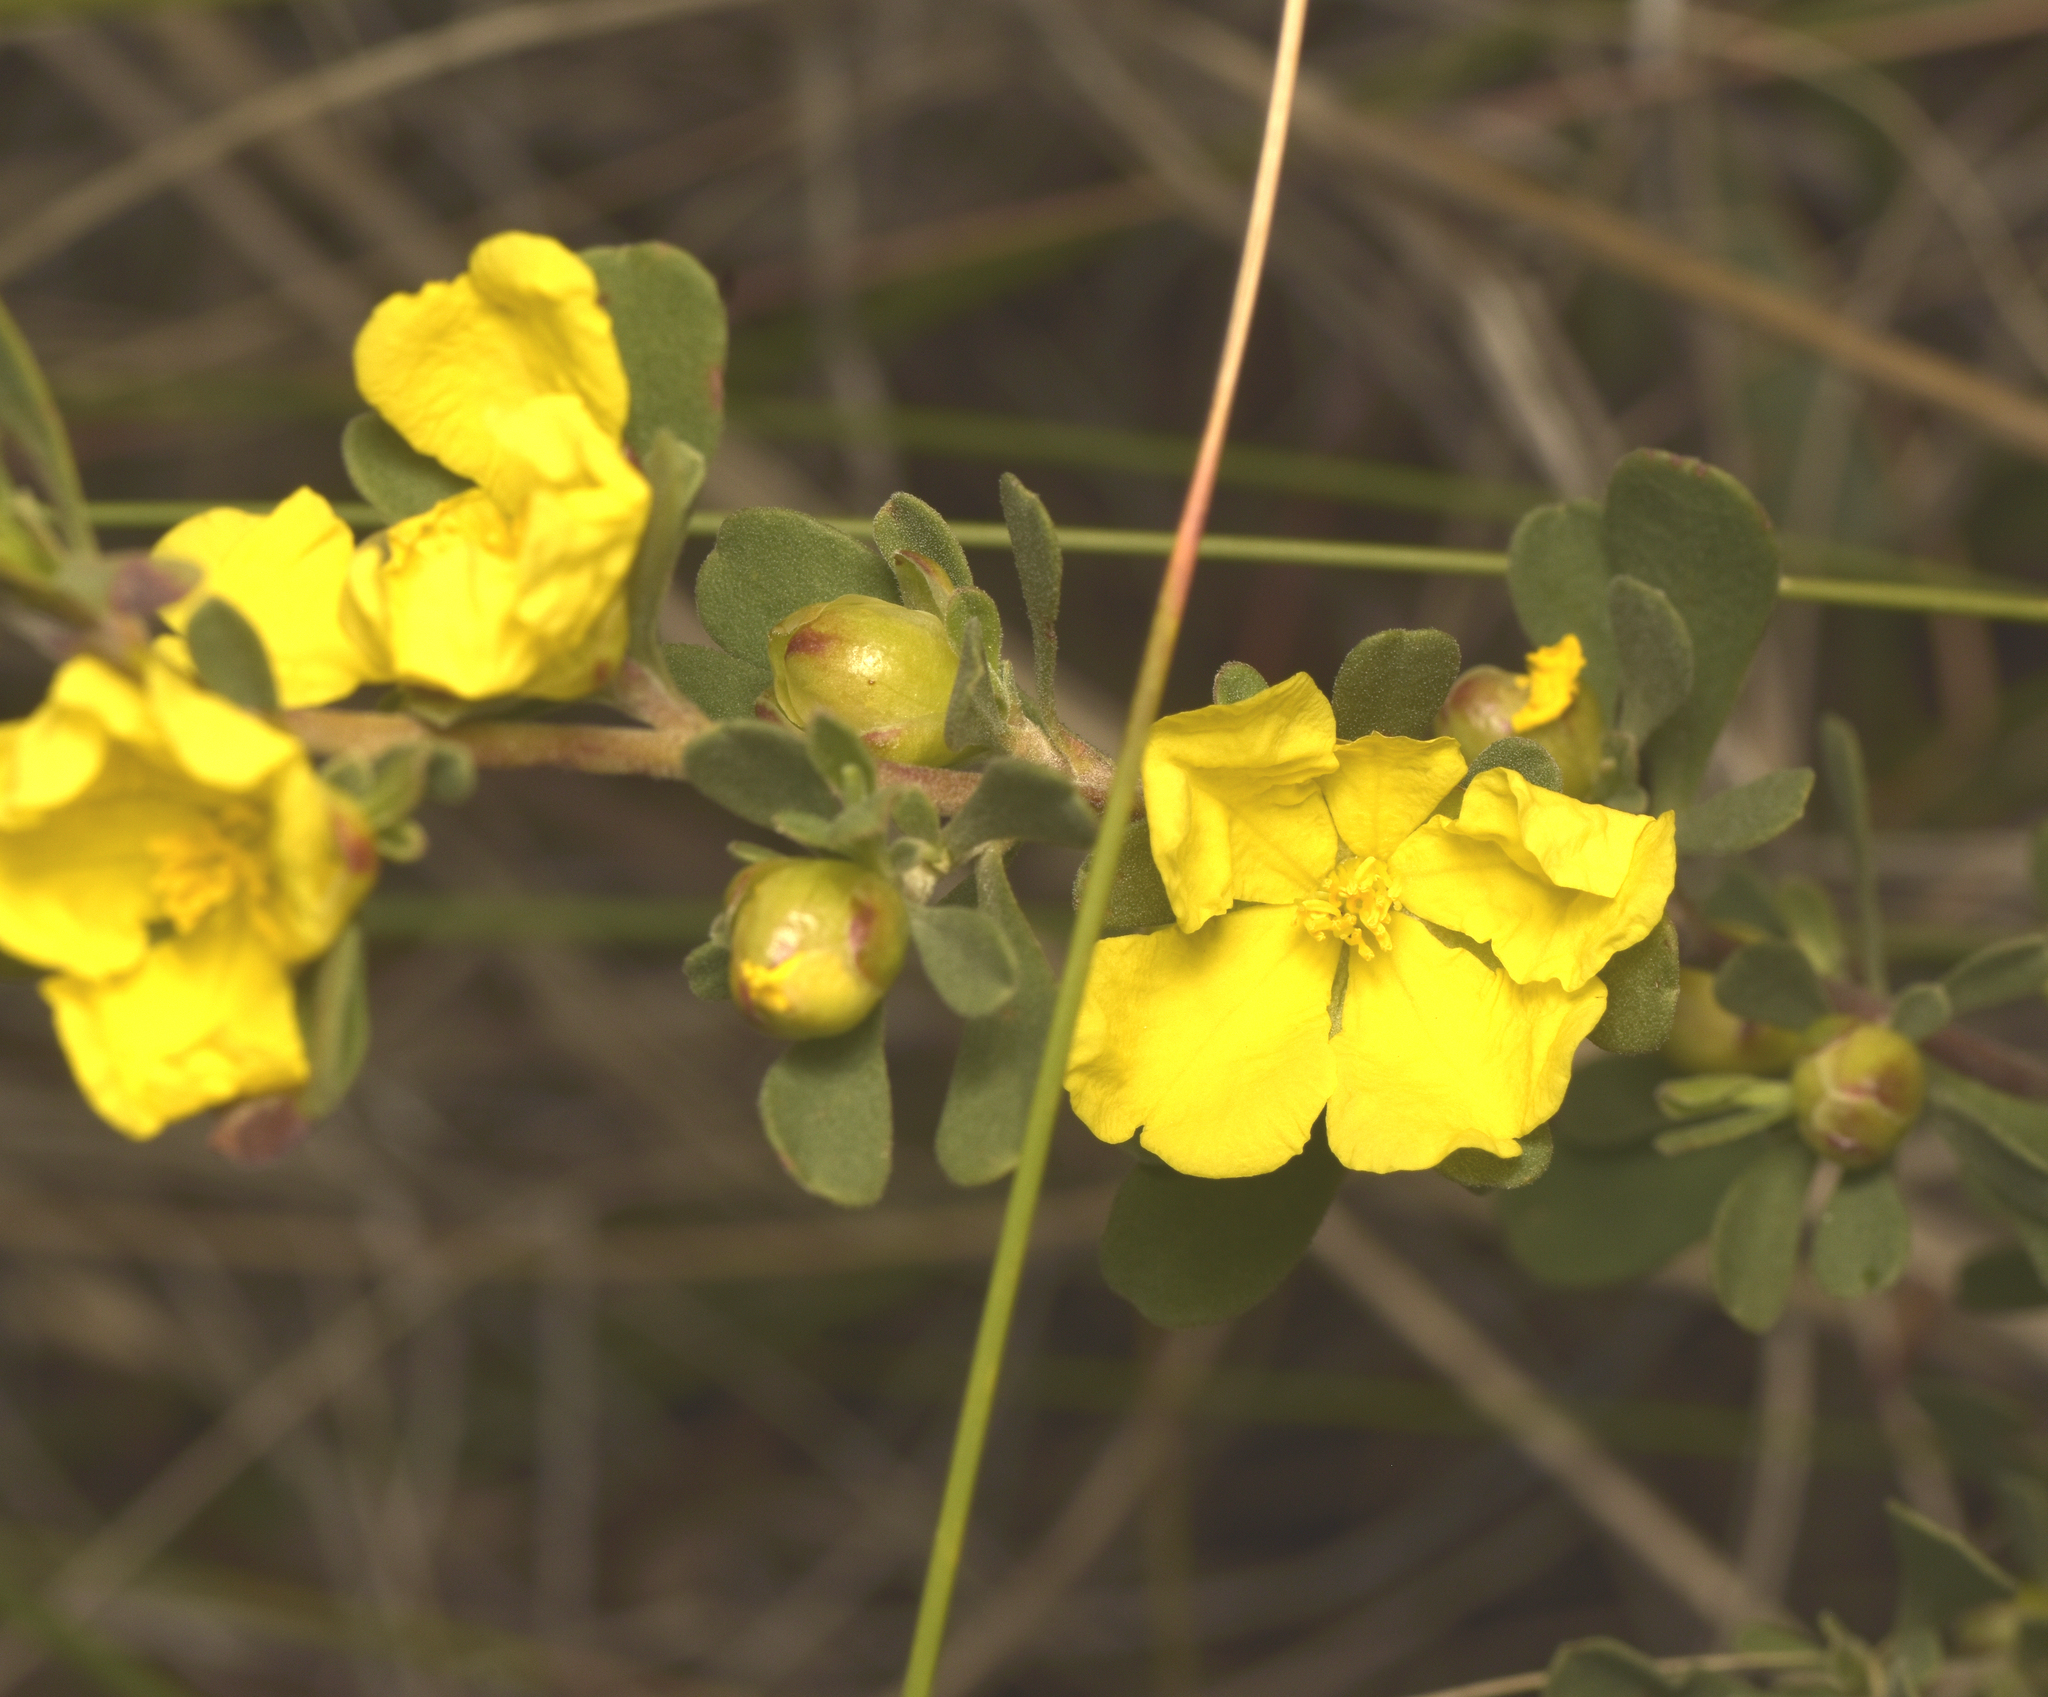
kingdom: Plantae
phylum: Tracheophyta
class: Magnoliopsida
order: Dilleniales
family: Dilleniaceae
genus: Hibbertia
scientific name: Hibbertia obtusifolia
